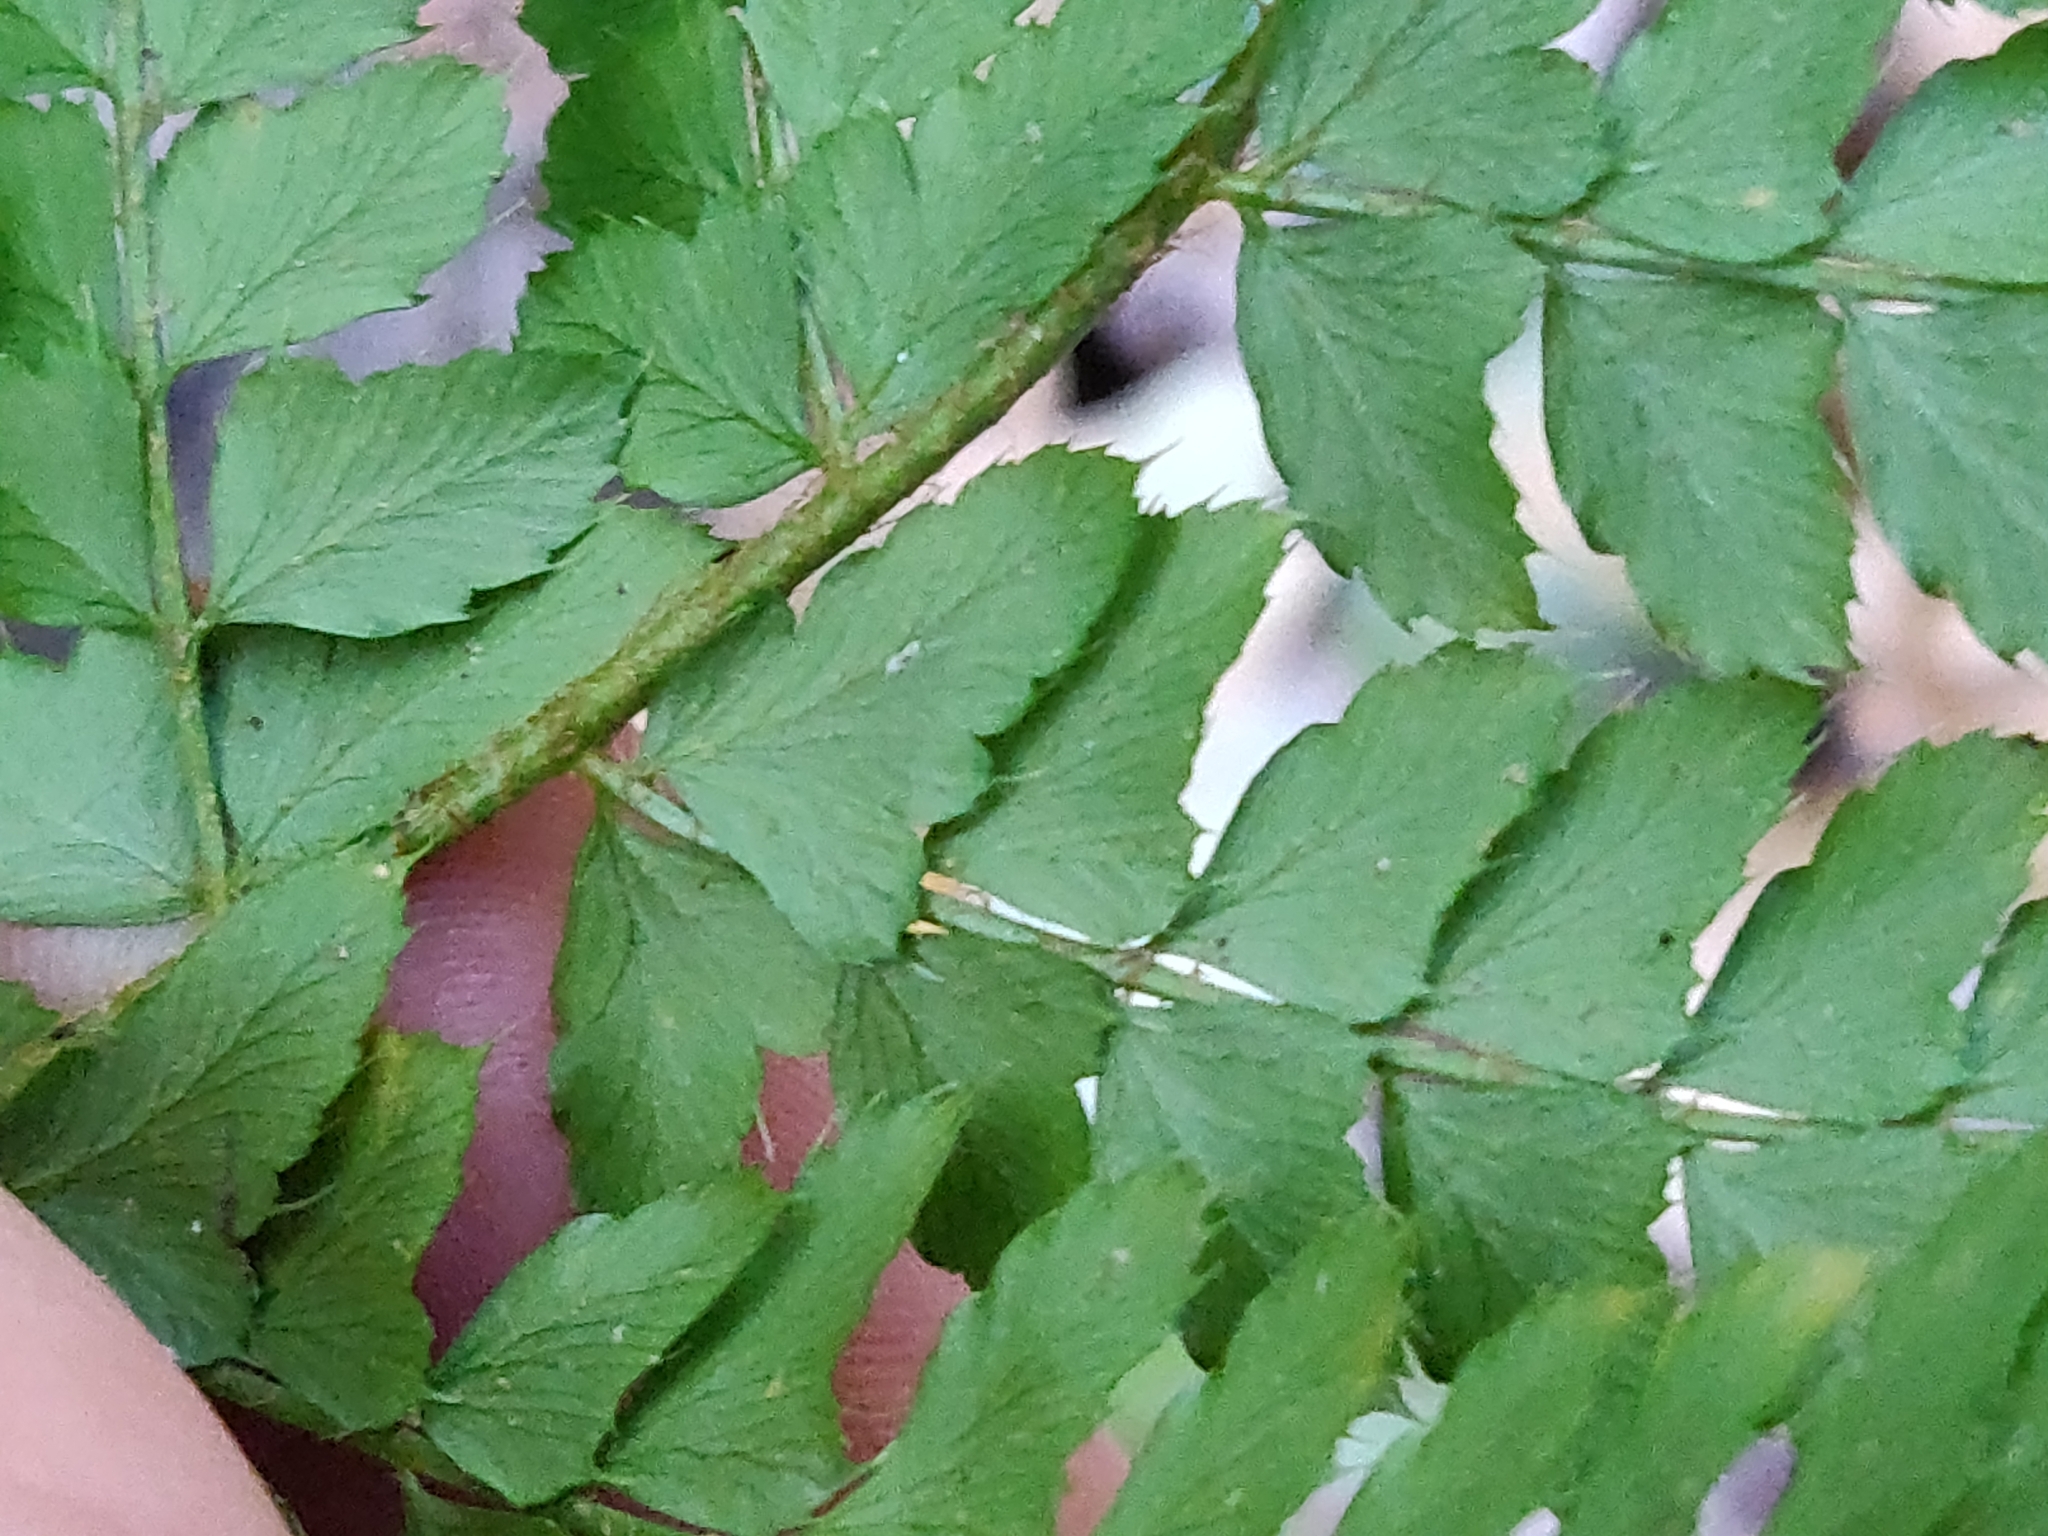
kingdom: Plantae
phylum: Tracheophyta
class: Polypodiopsida
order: Polypodiales
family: Dryopteridaceae
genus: Polystichum
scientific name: Polystichum setiferum
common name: Soft shield-fern
